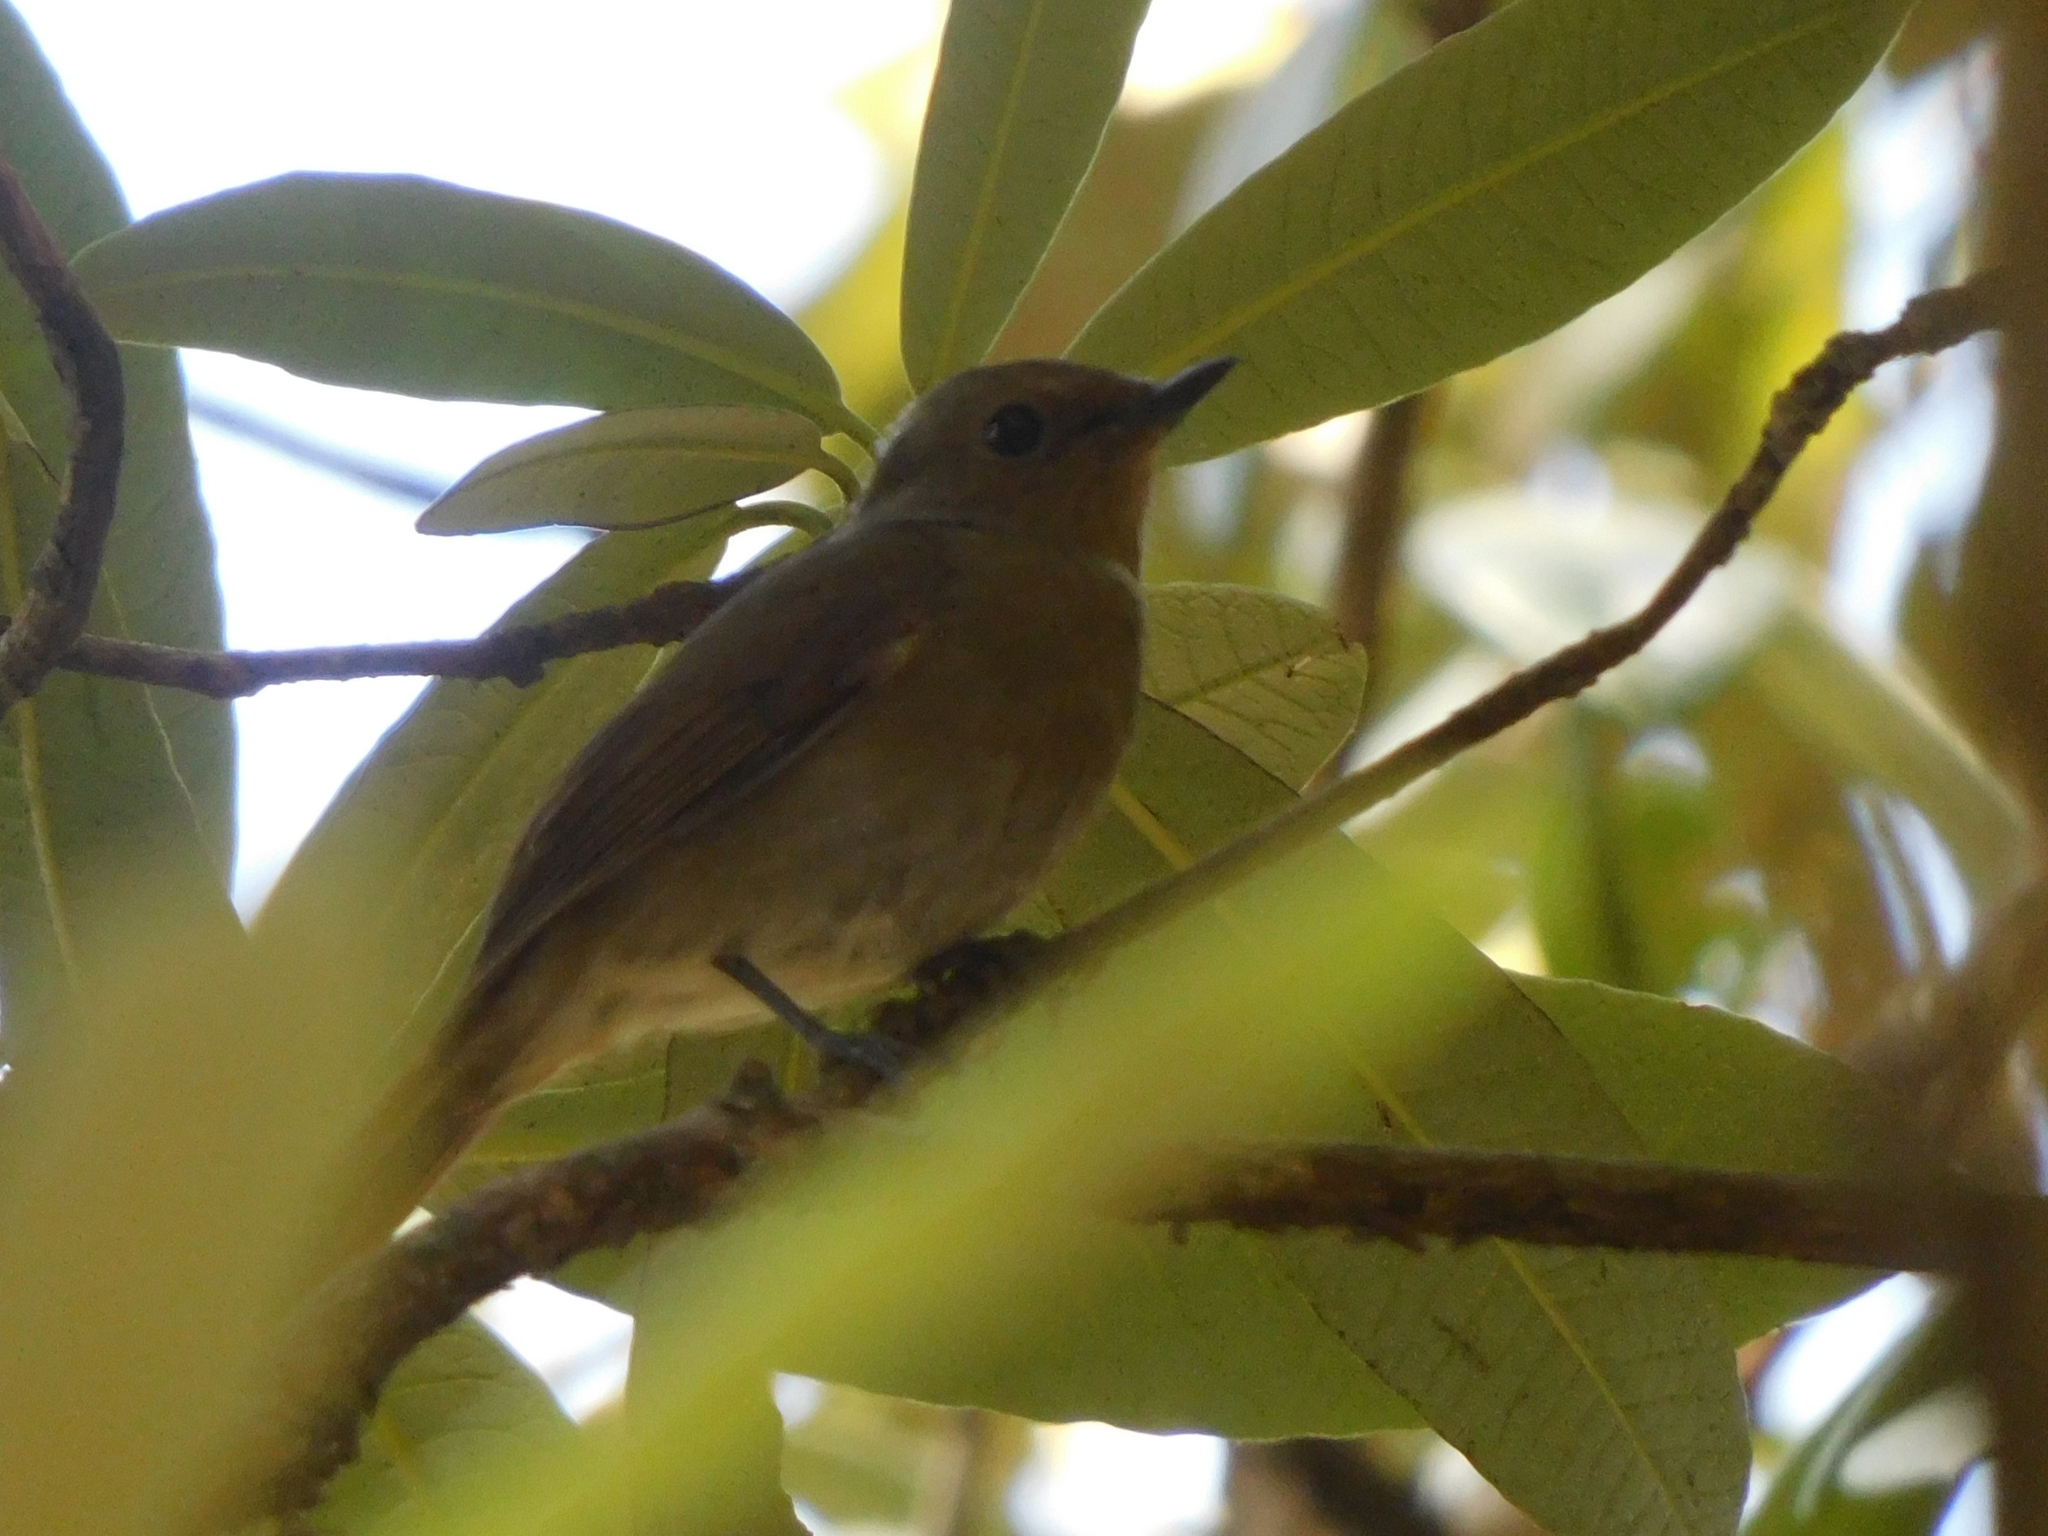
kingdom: Animalia
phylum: Chordata
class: Aves
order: Passeriformes
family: Muscicapidae
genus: Niltava
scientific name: Niltava macgrigoriae
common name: Small niltava
